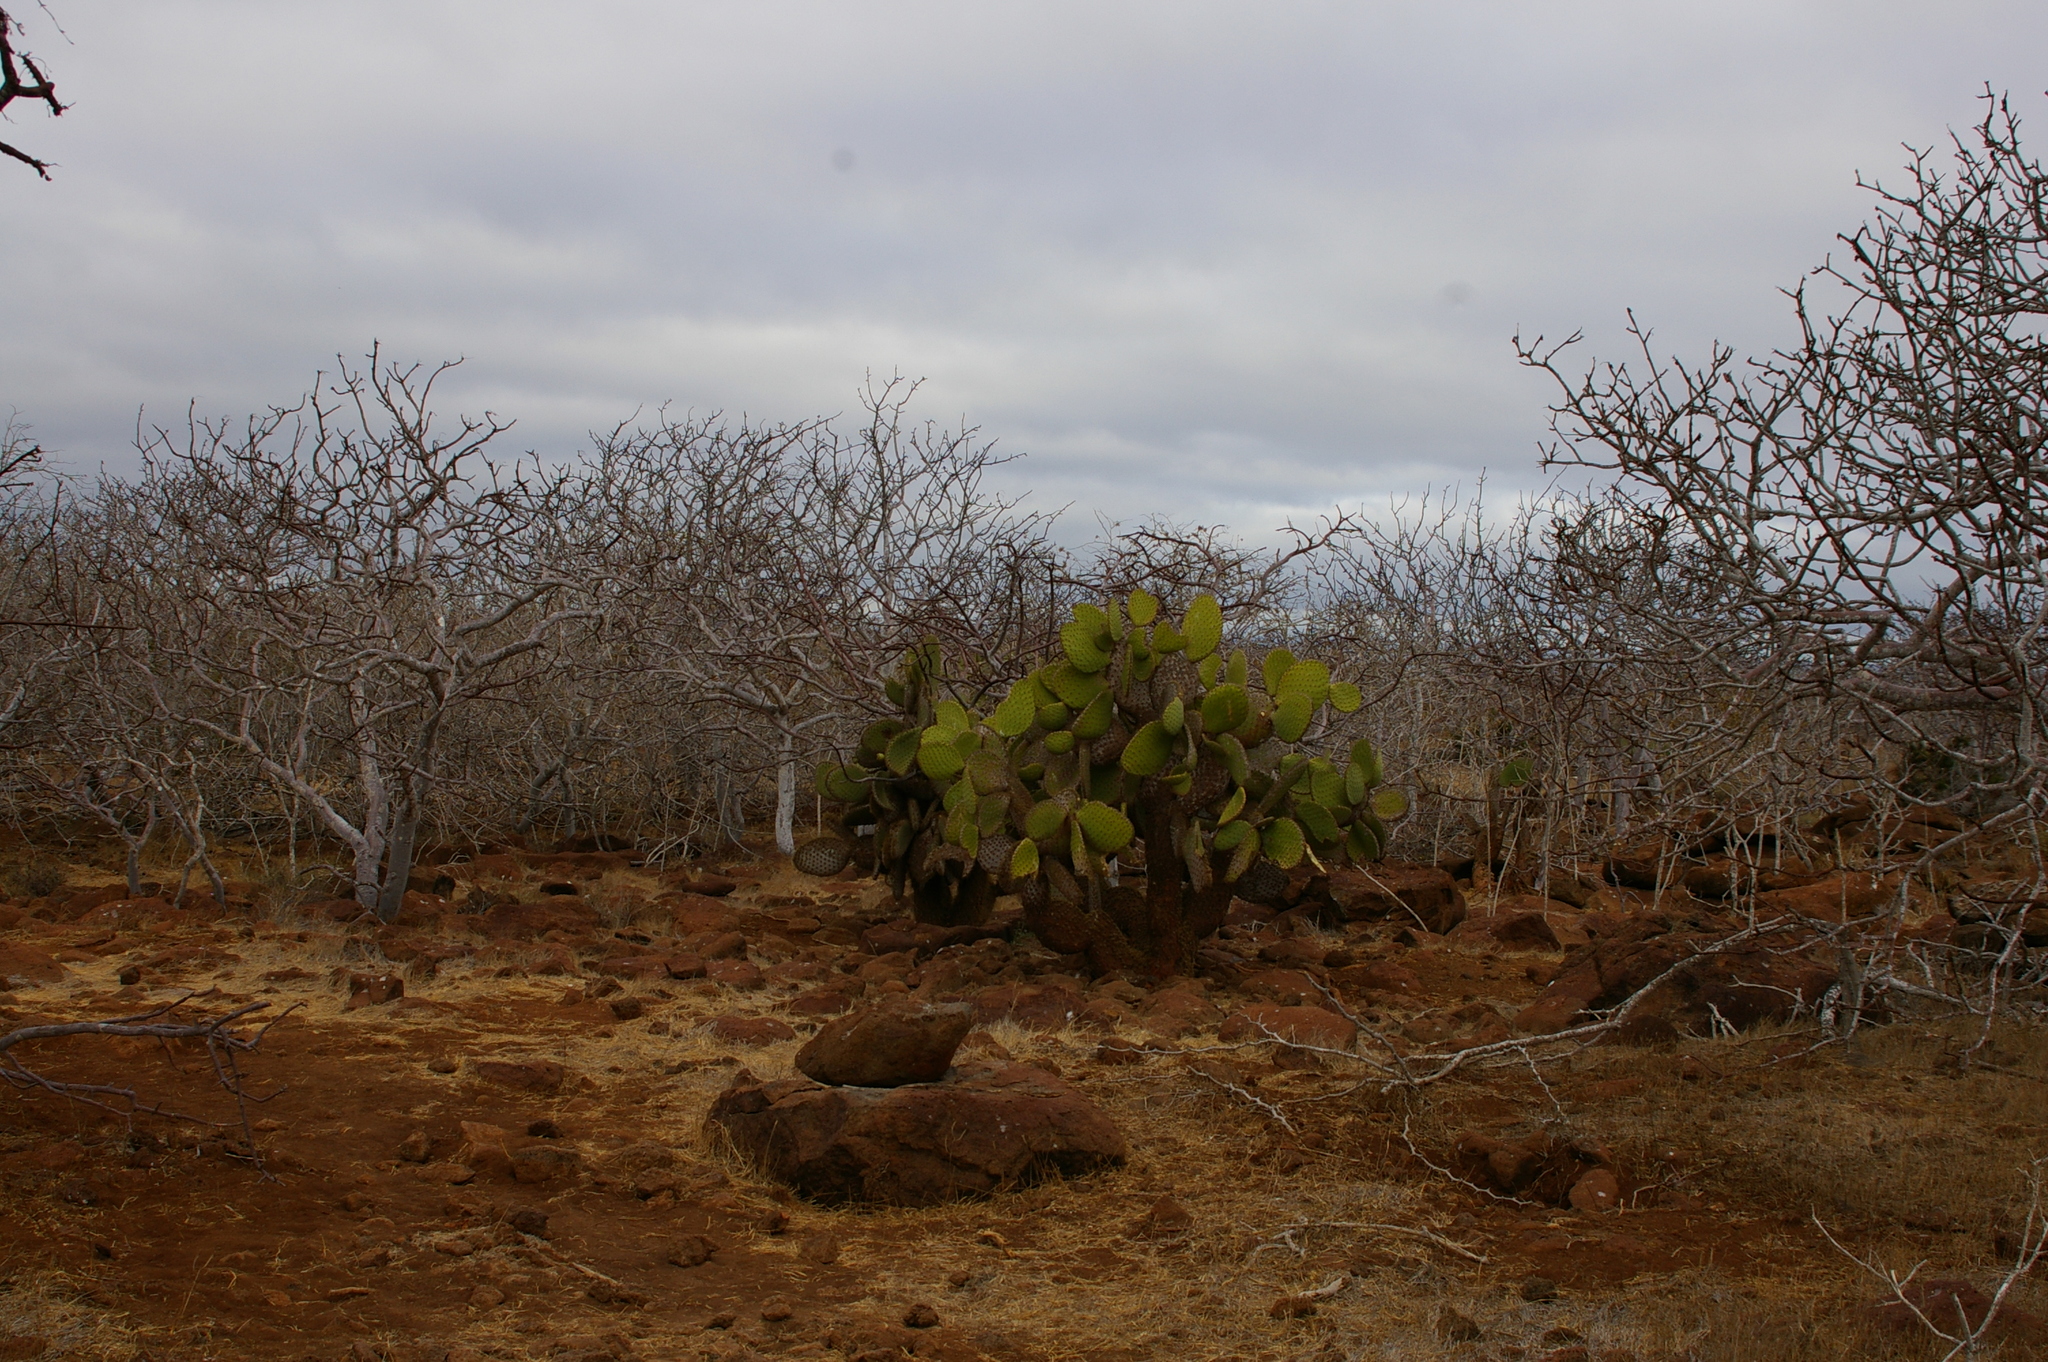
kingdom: Plantae
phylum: Tracheophyta
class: Magnoliopsida
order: Caryophyllales
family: Cactaceae
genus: Opuntia
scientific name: Opuntia galapageia
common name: Galápagos prickly pear
